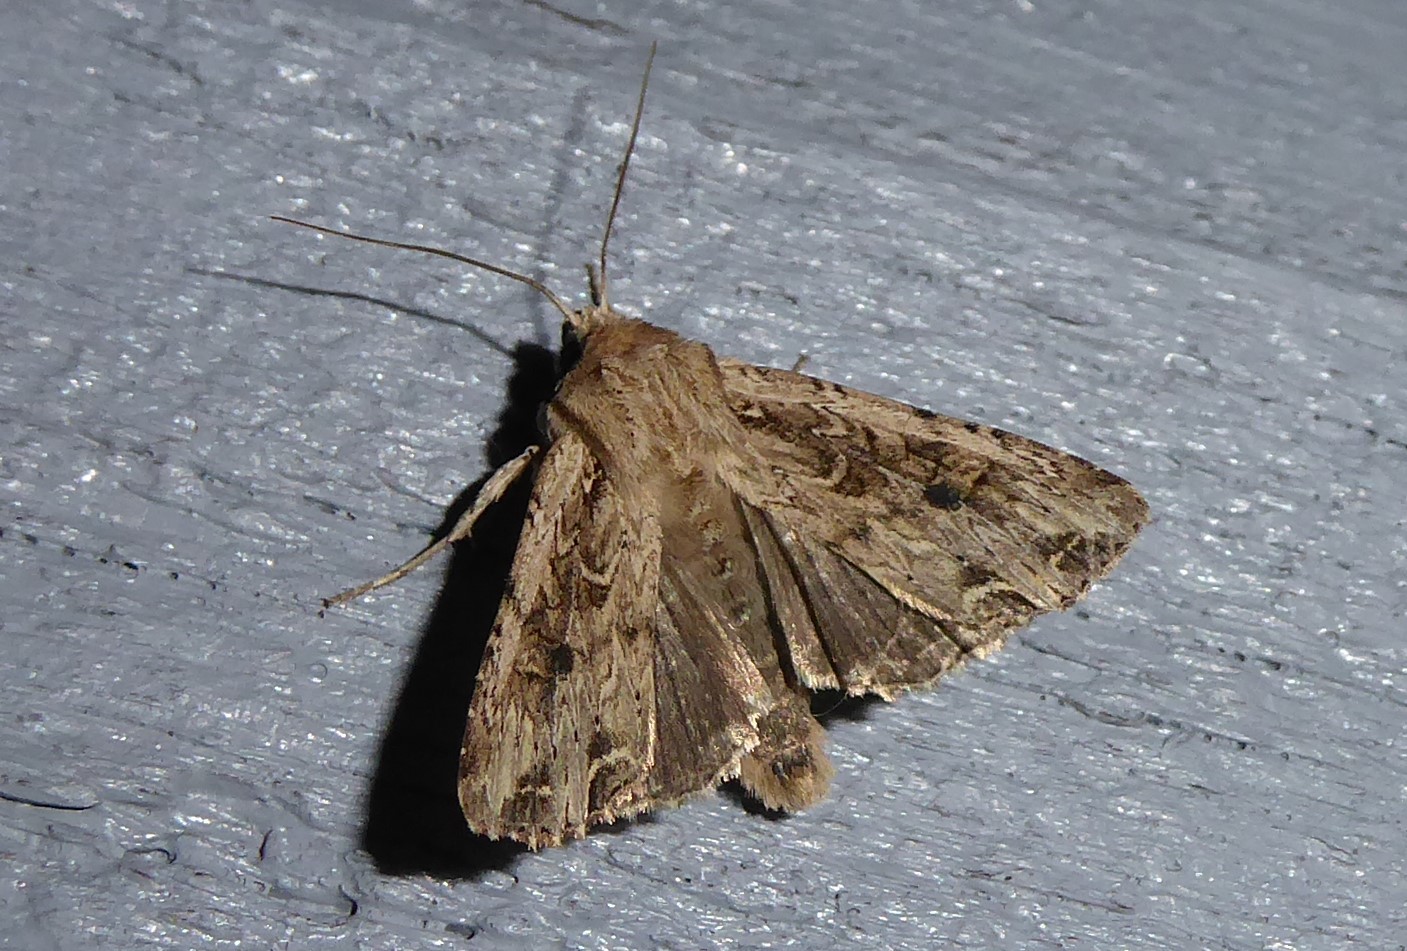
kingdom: Animalia
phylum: Arthropoda
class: Insecta
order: Lepidoptera
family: Noctuidae
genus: Ichneutica
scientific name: Ichneutica lignana
